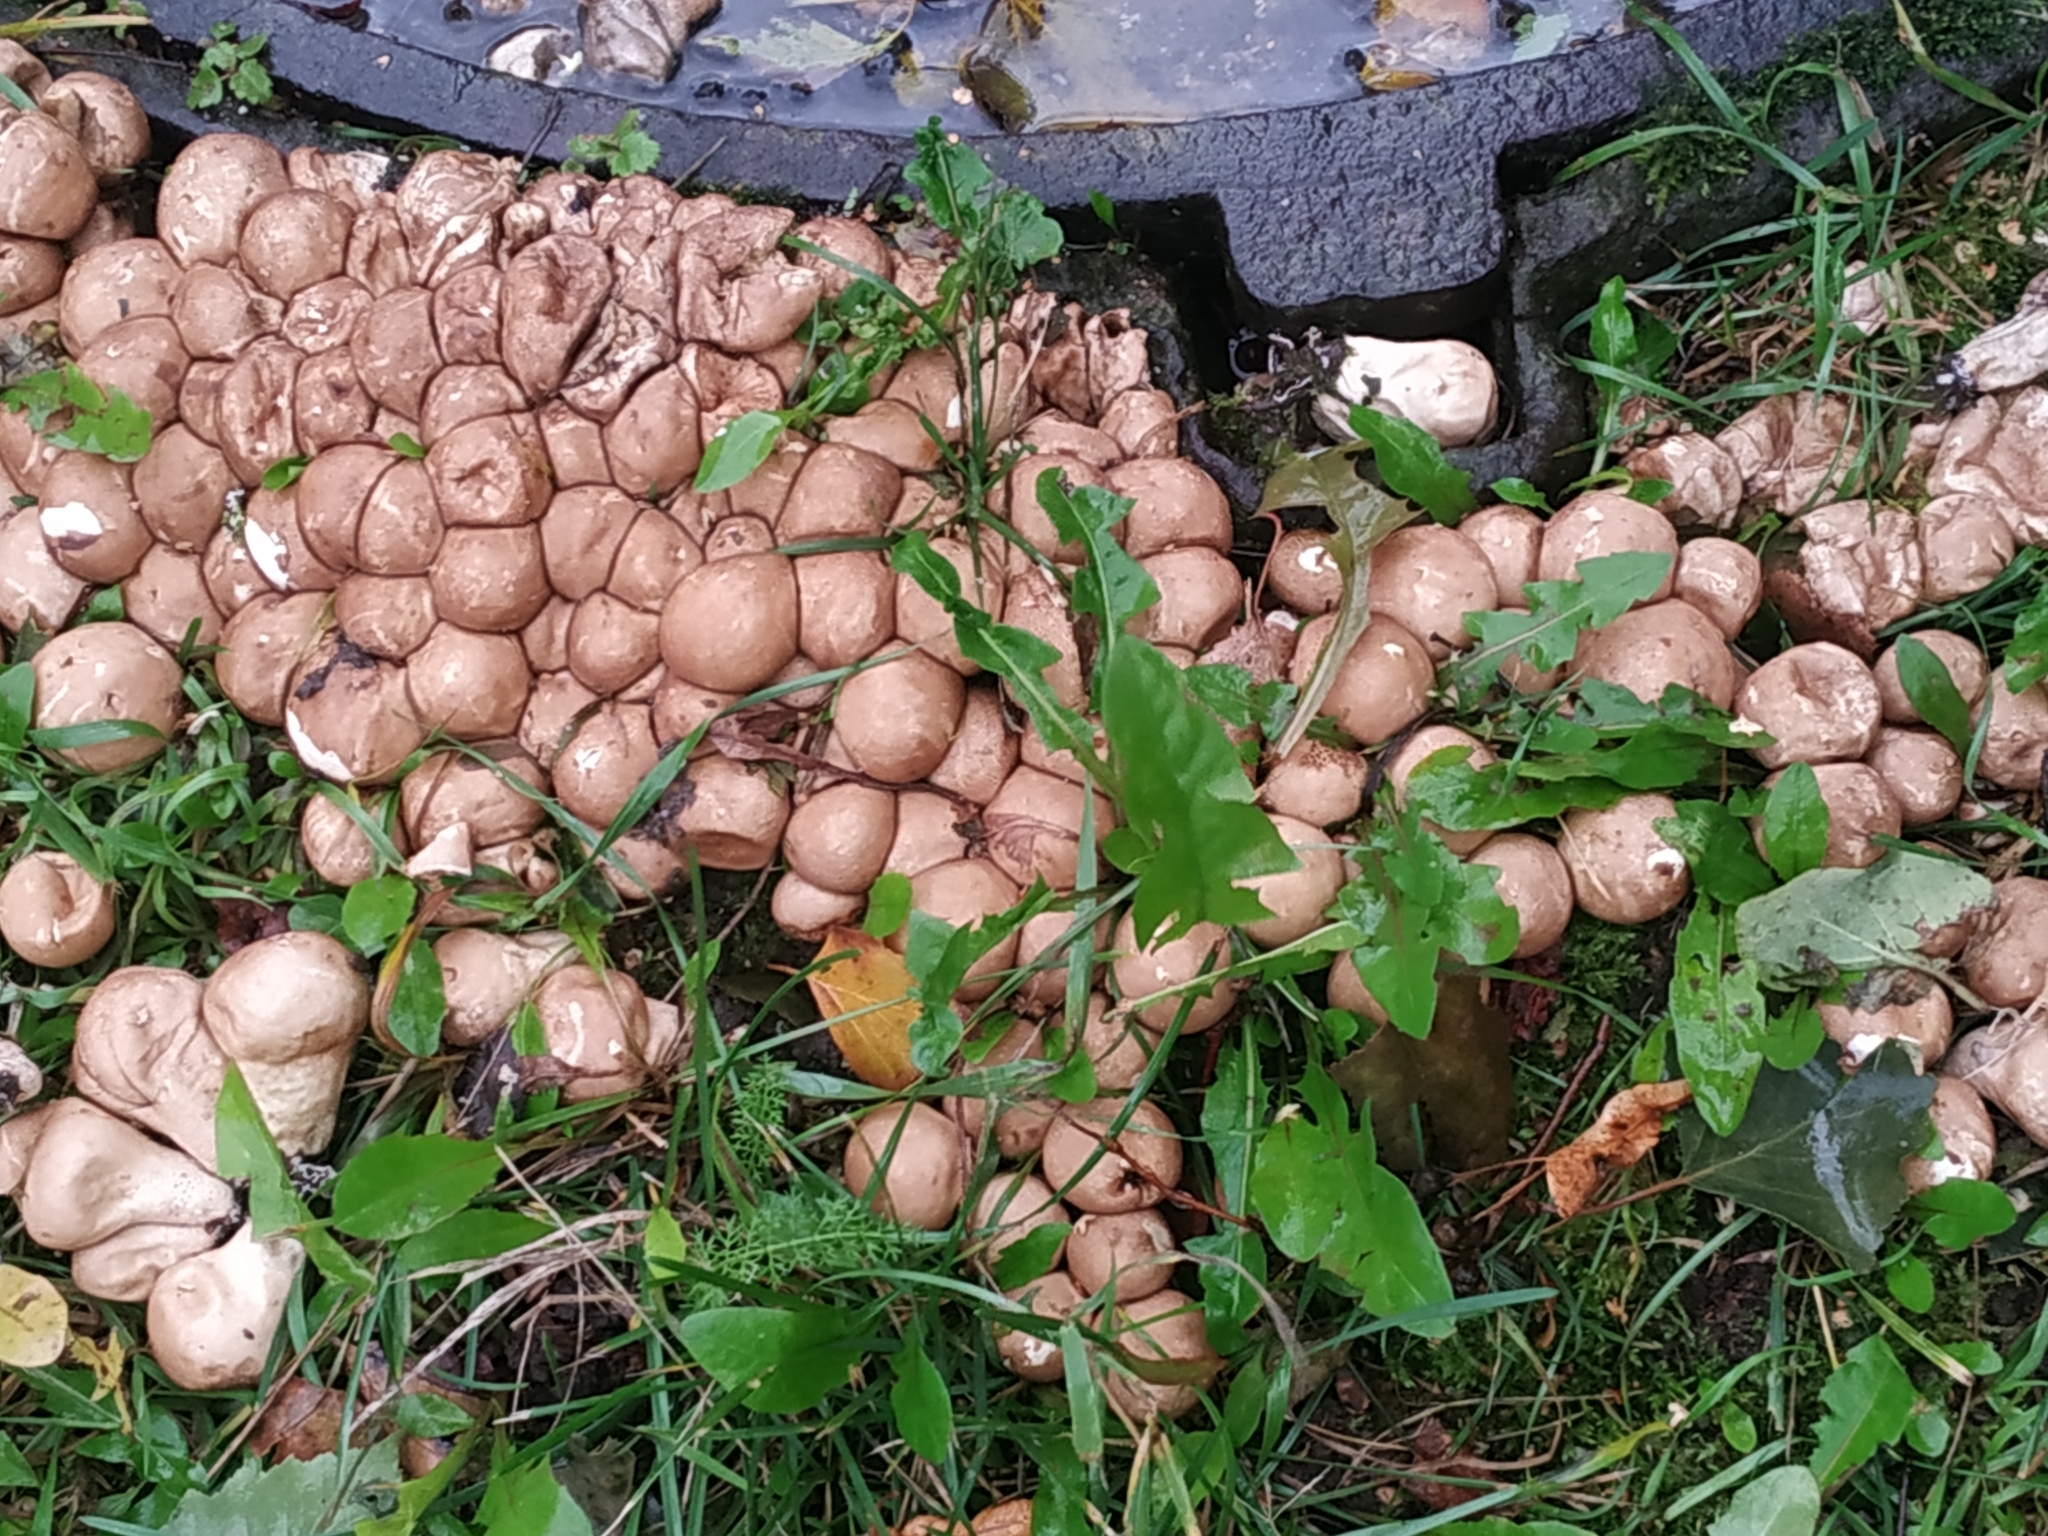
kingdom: Fungi
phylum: Basidiomycota
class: Agaricomycetes
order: Agaricales
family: Lycoperdaceae
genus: Apioperdon
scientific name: Apioperdon pyriforme
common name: Pear-shaped puffball
